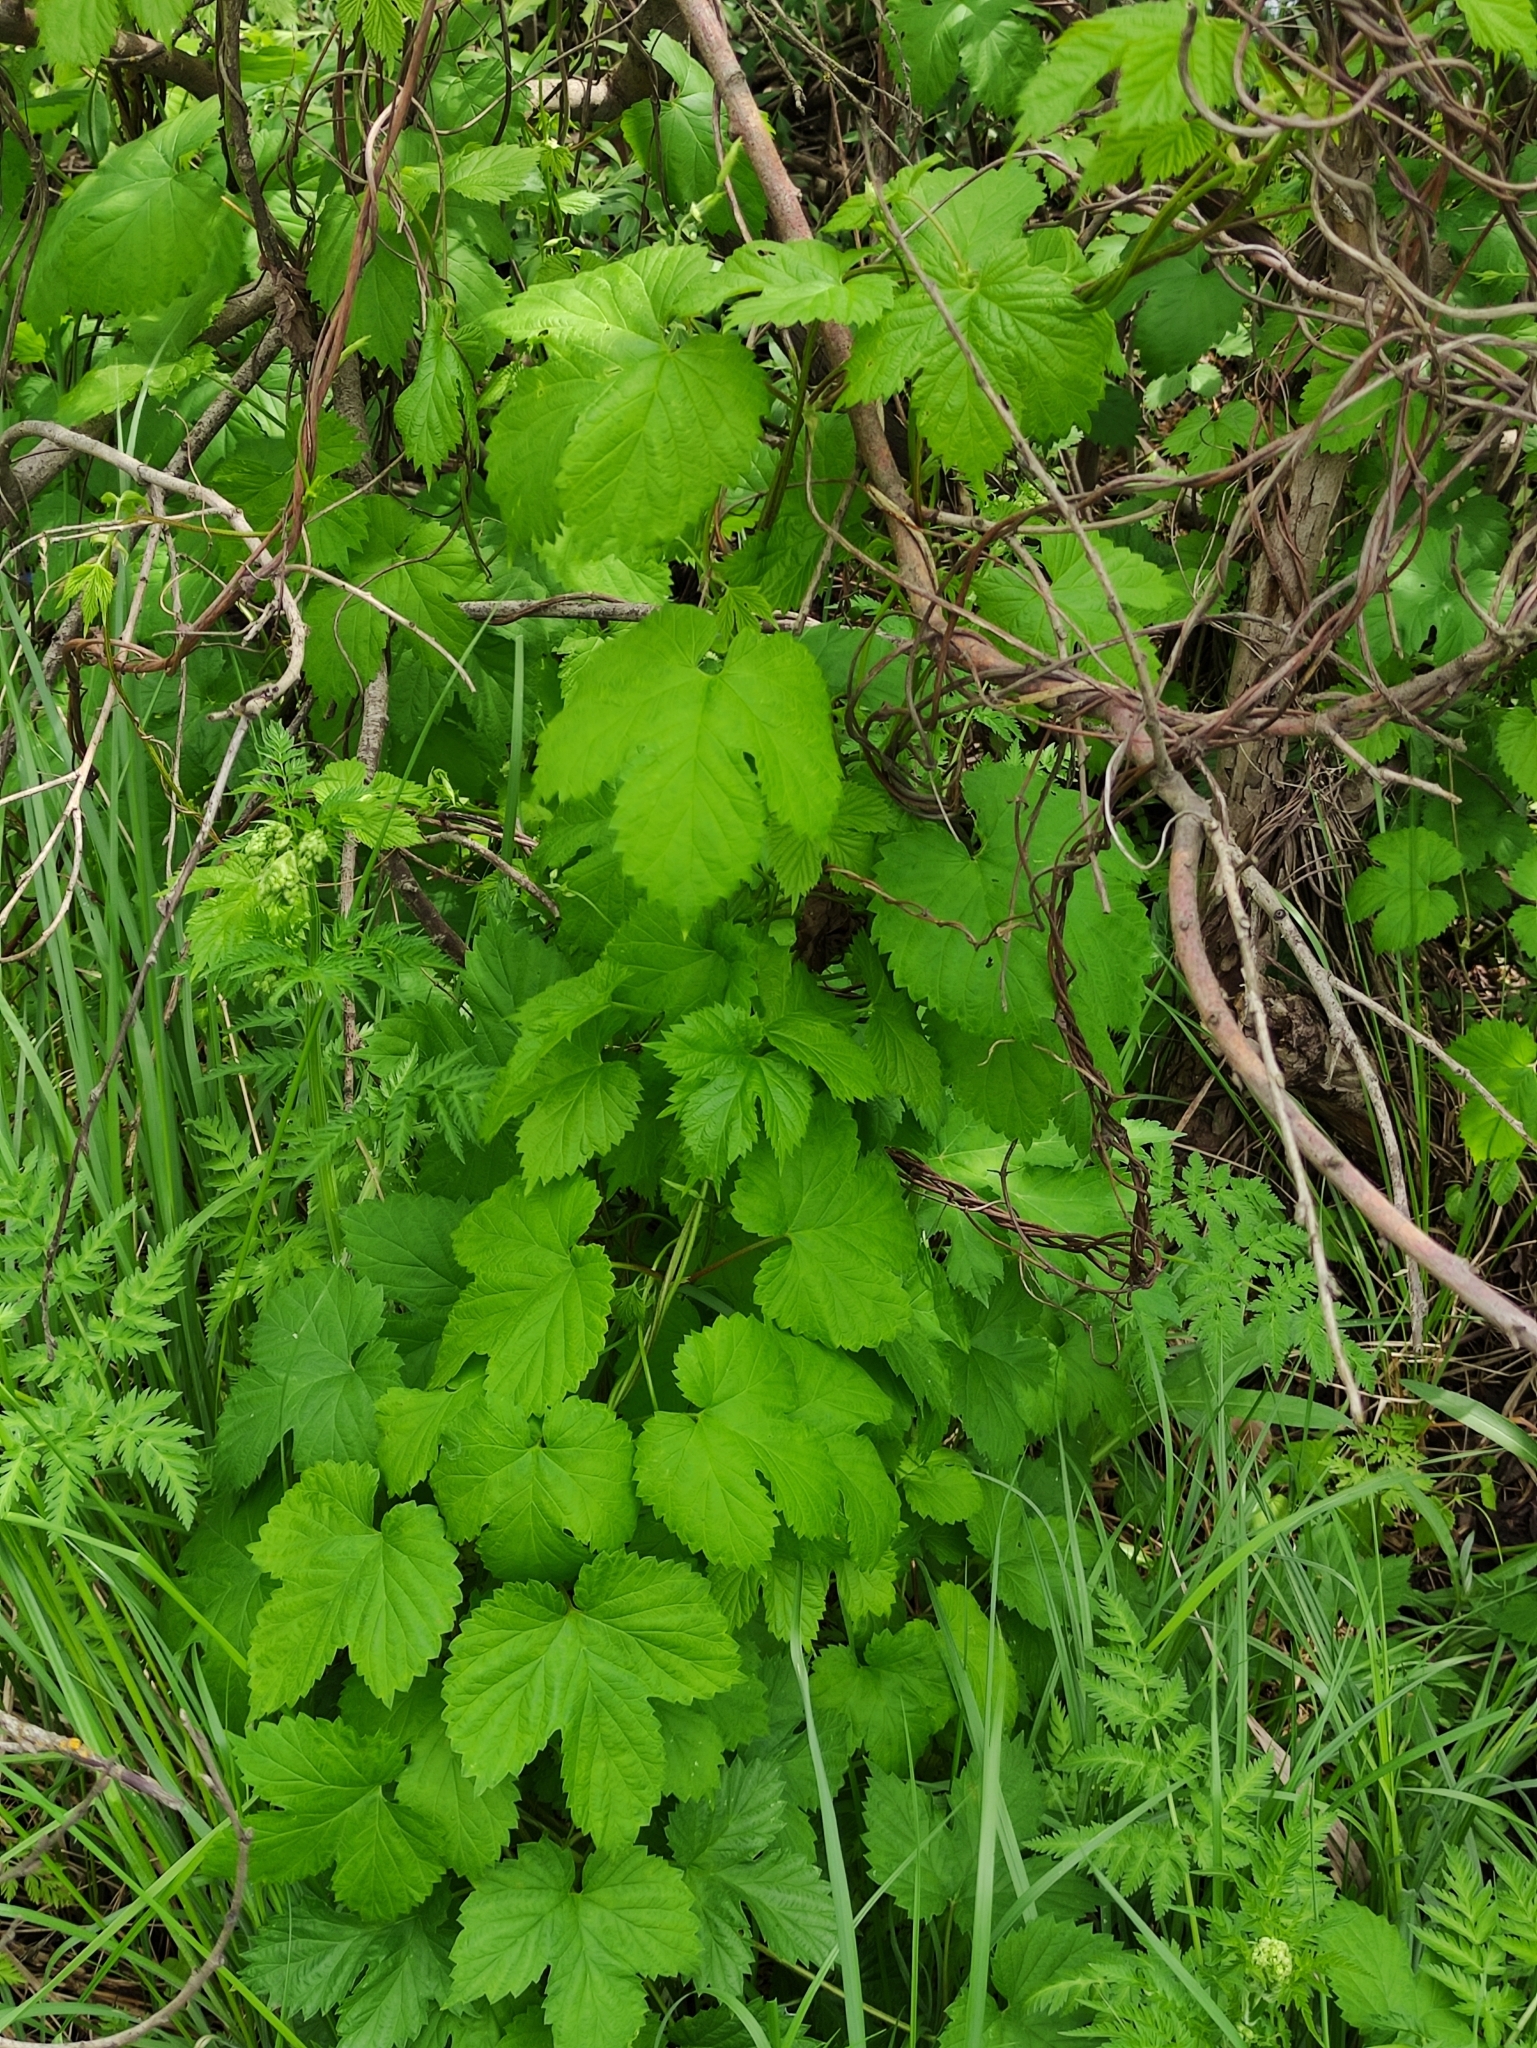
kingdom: Plantae
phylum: Tracheophyta
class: Magnoliopsida
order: Rosales
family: Cannabaceae
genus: Humulus
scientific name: Humulus lupulus
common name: Hop
